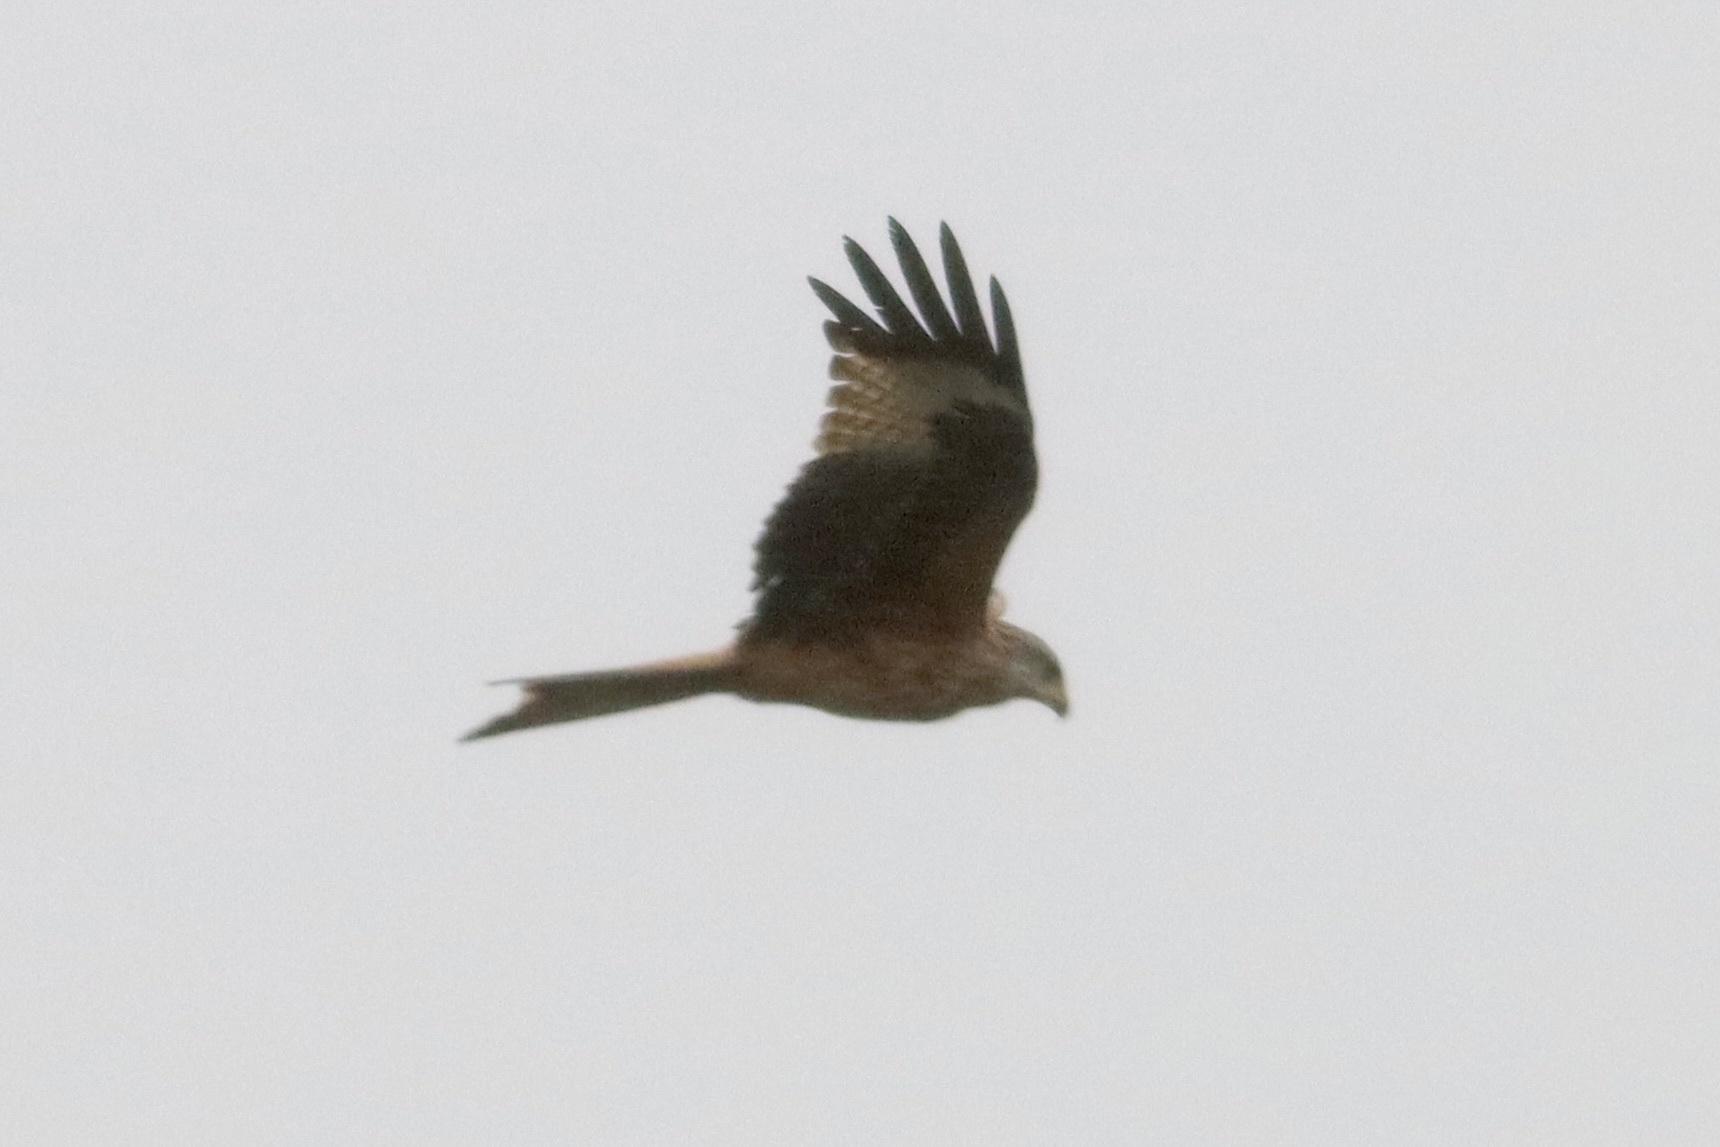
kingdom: Animalia
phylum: Chordata
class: Aves
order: Accipitriformes
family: Accipitridae
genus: Milvus
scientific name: Milvus milvus
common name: Red kite
